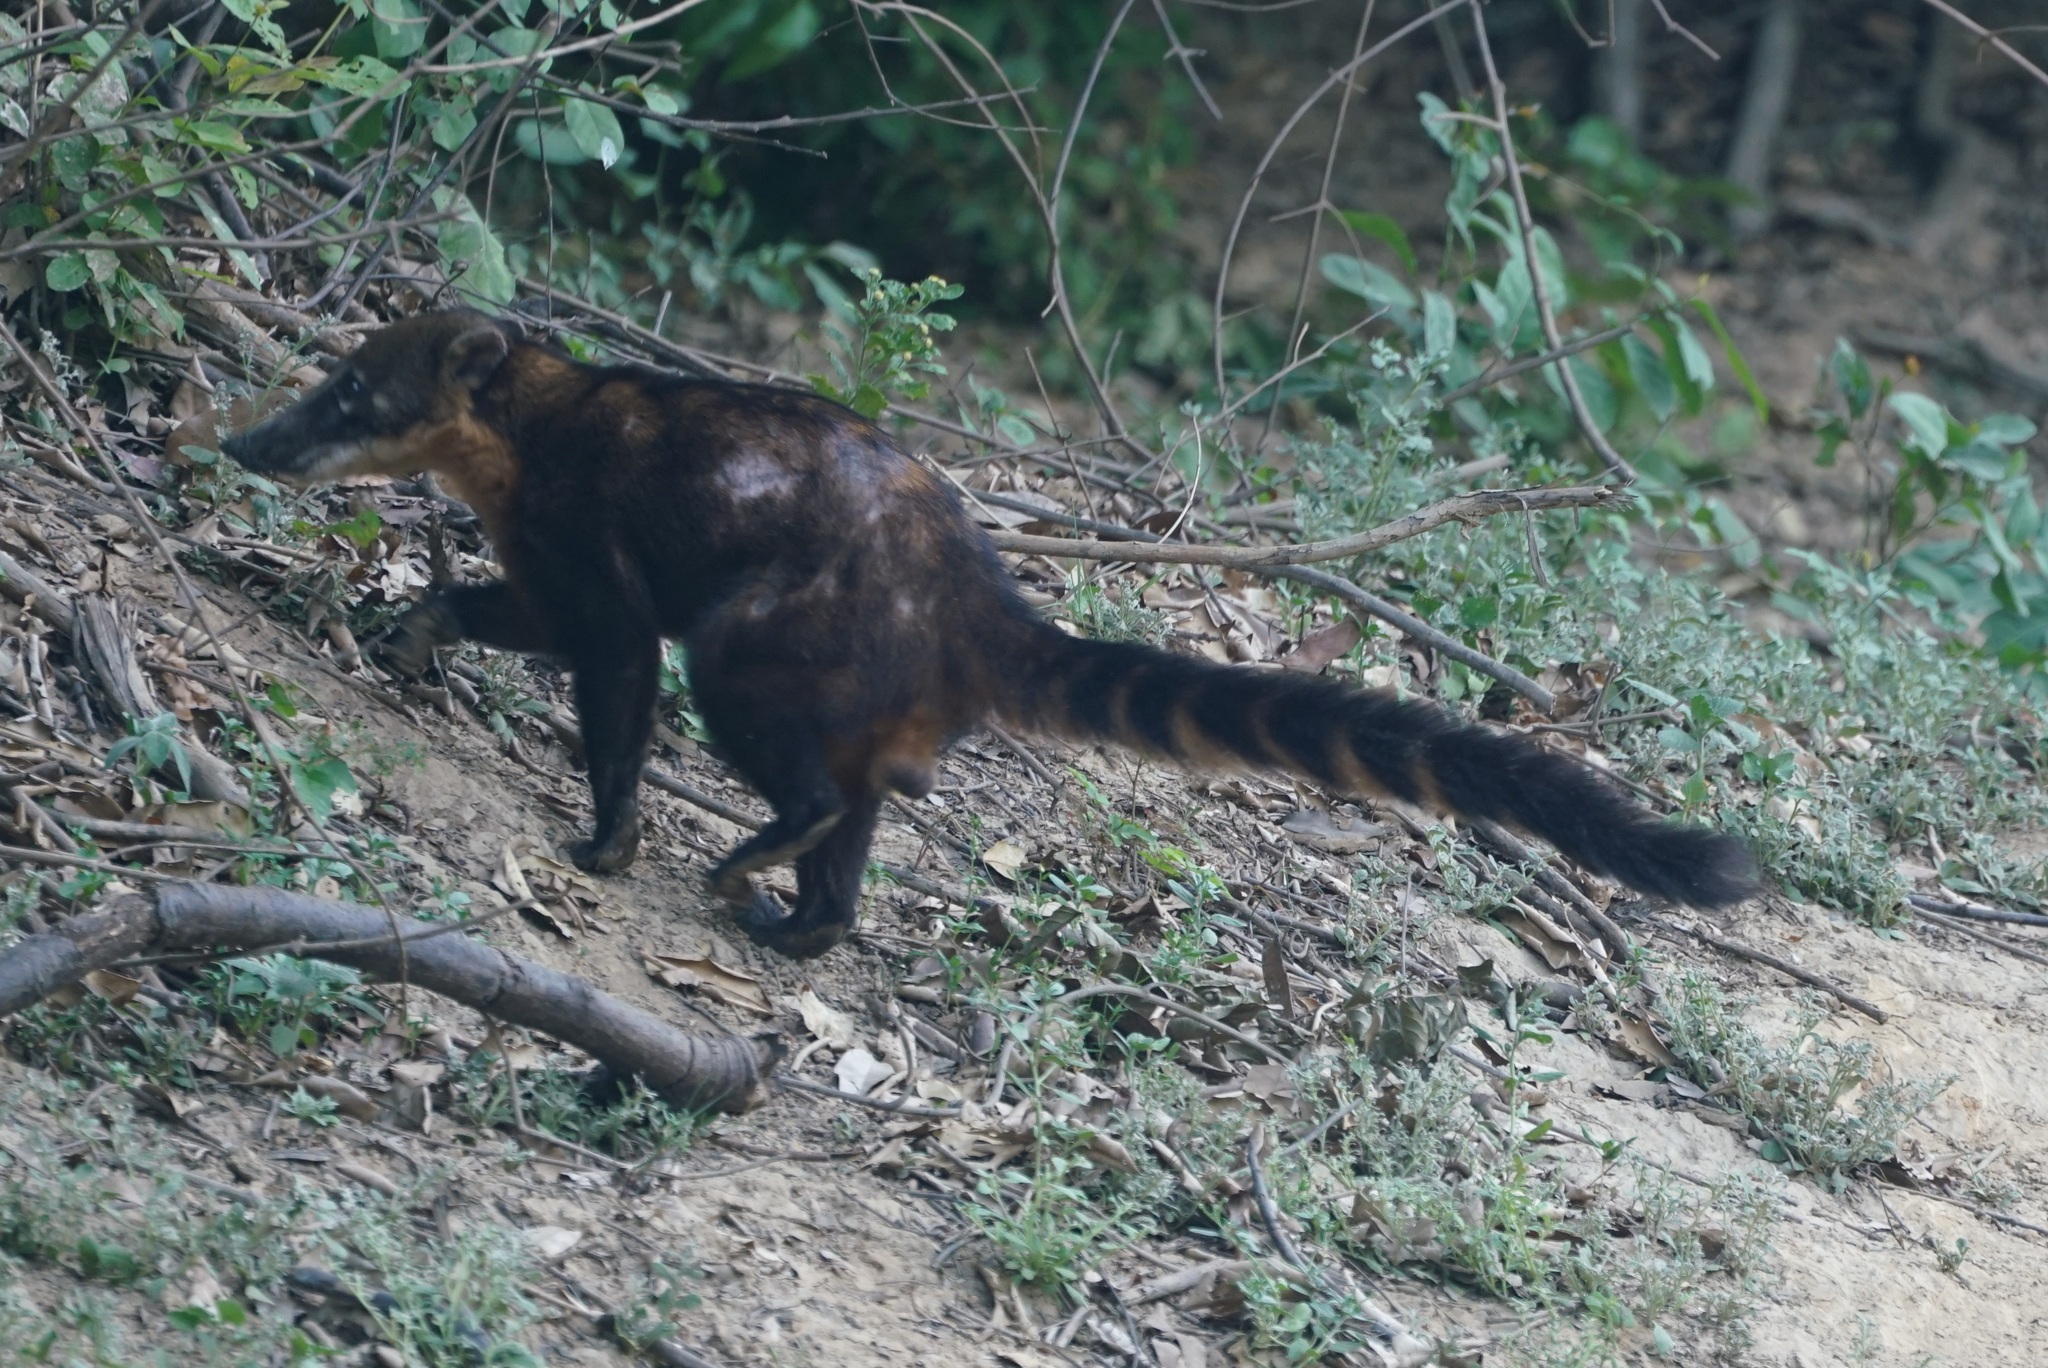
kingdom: Animalia
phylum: Chordata
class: Mammalia
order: Carnivora
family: Procyonidae
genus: Nasua
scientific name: Nasua nasua
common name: South american coati
